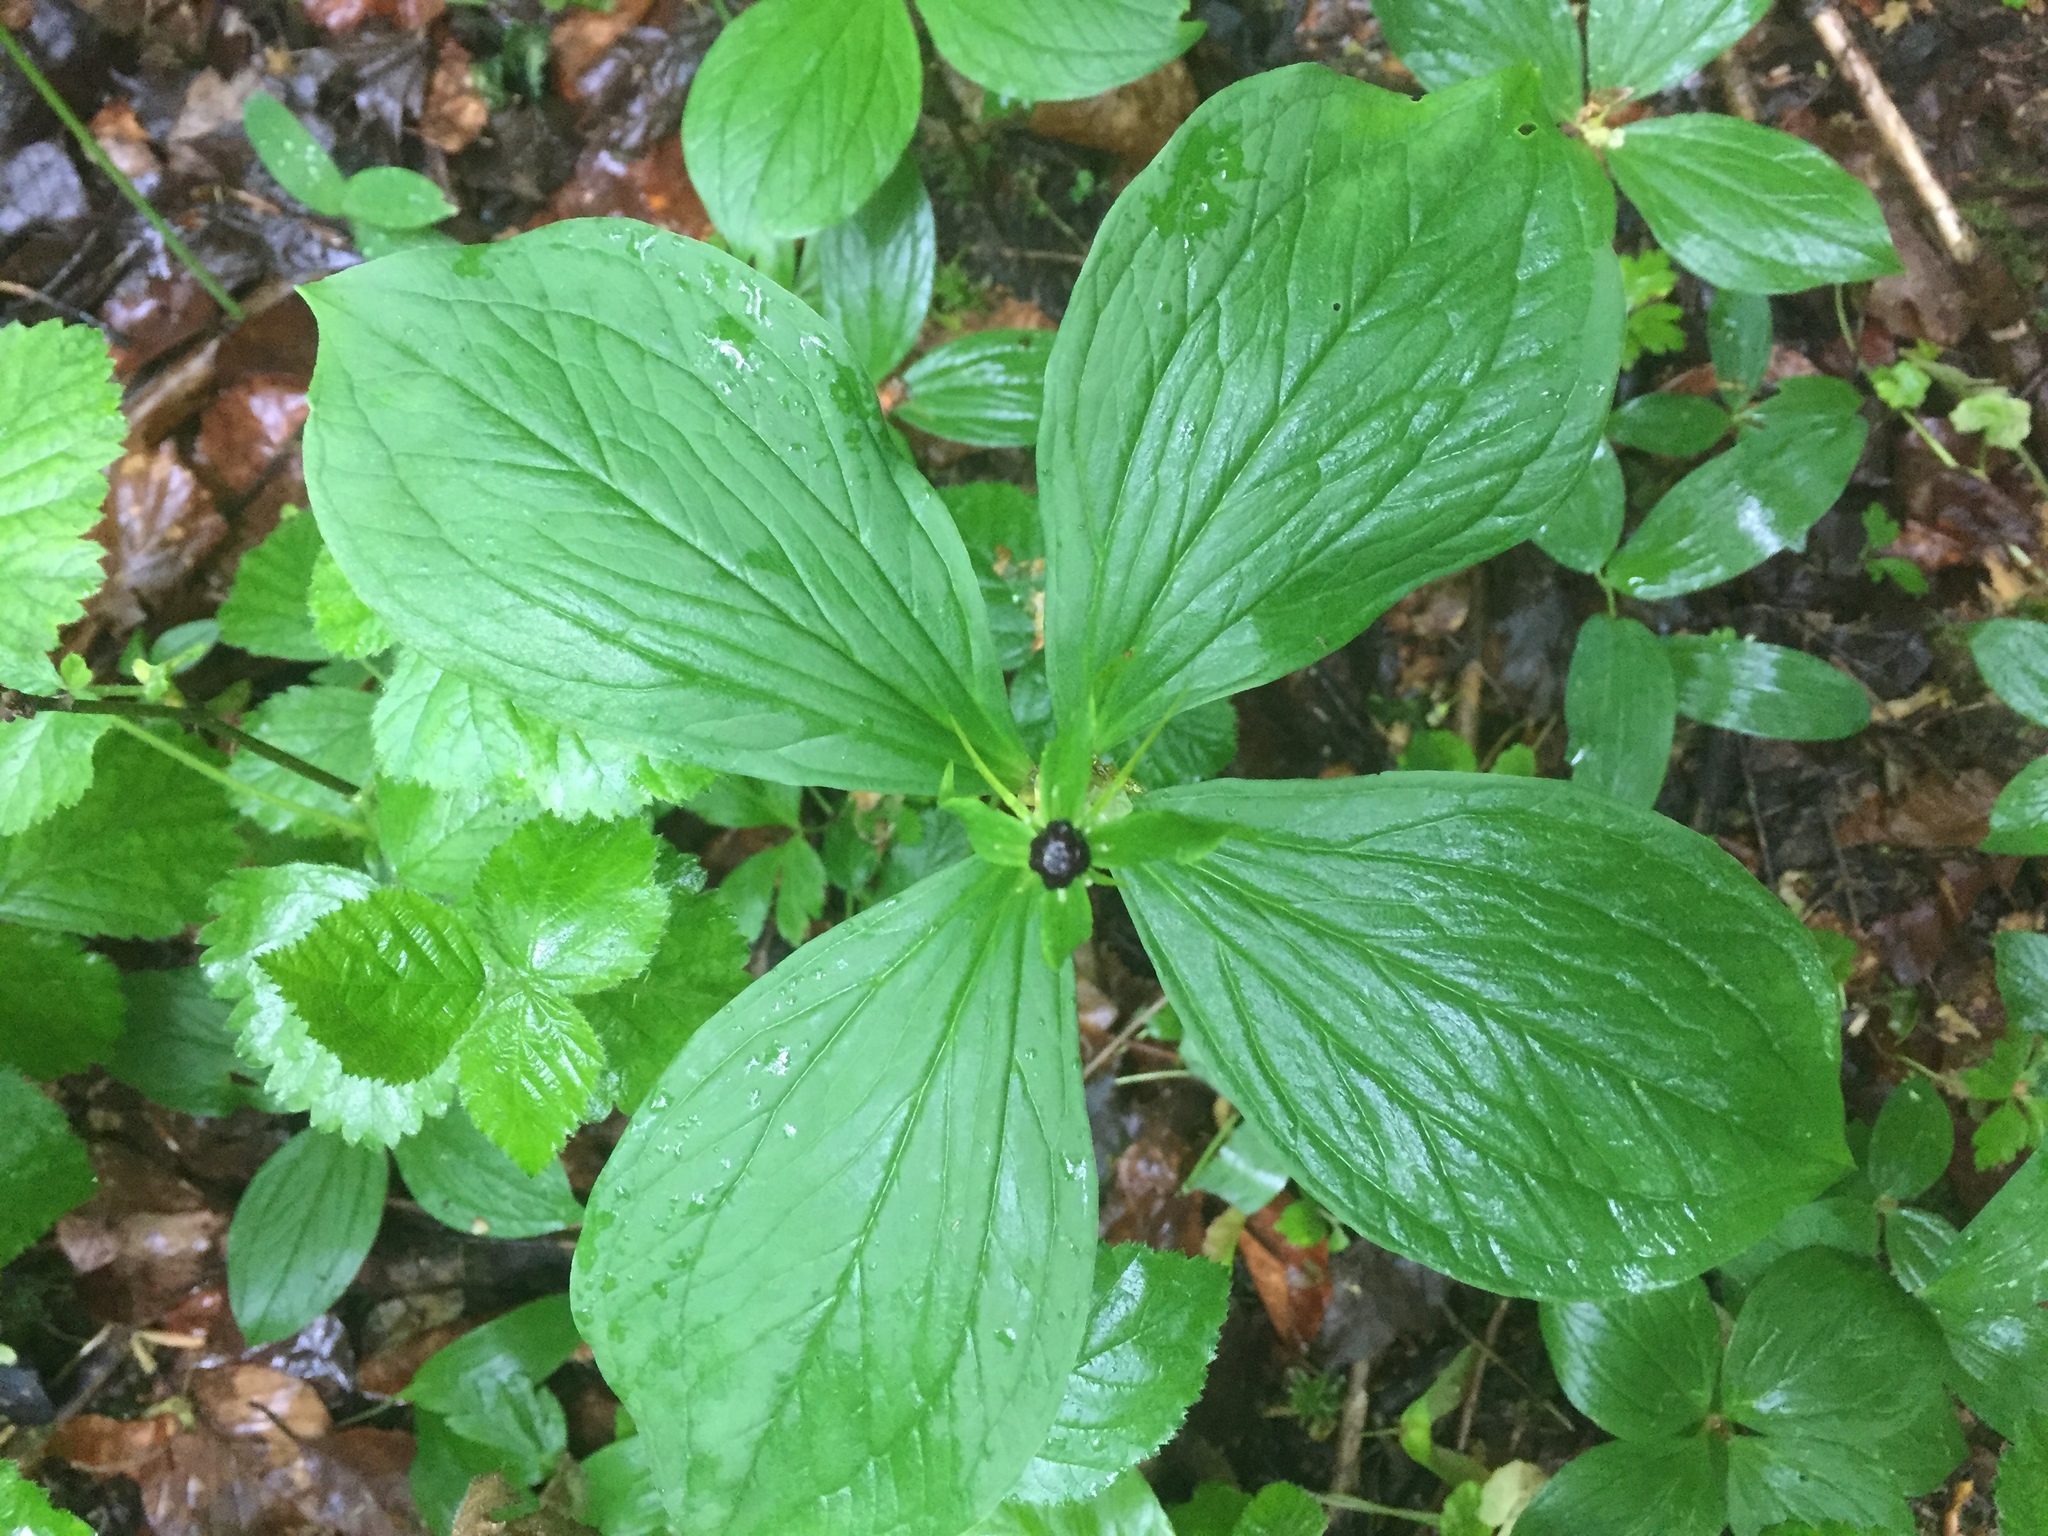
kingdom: Plantae
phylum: Tracheophyta
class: Liliopsida
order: Liliales
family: Melanthiaceae
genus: Paris
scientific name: Paris quadrifolia
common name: Herb-paris
